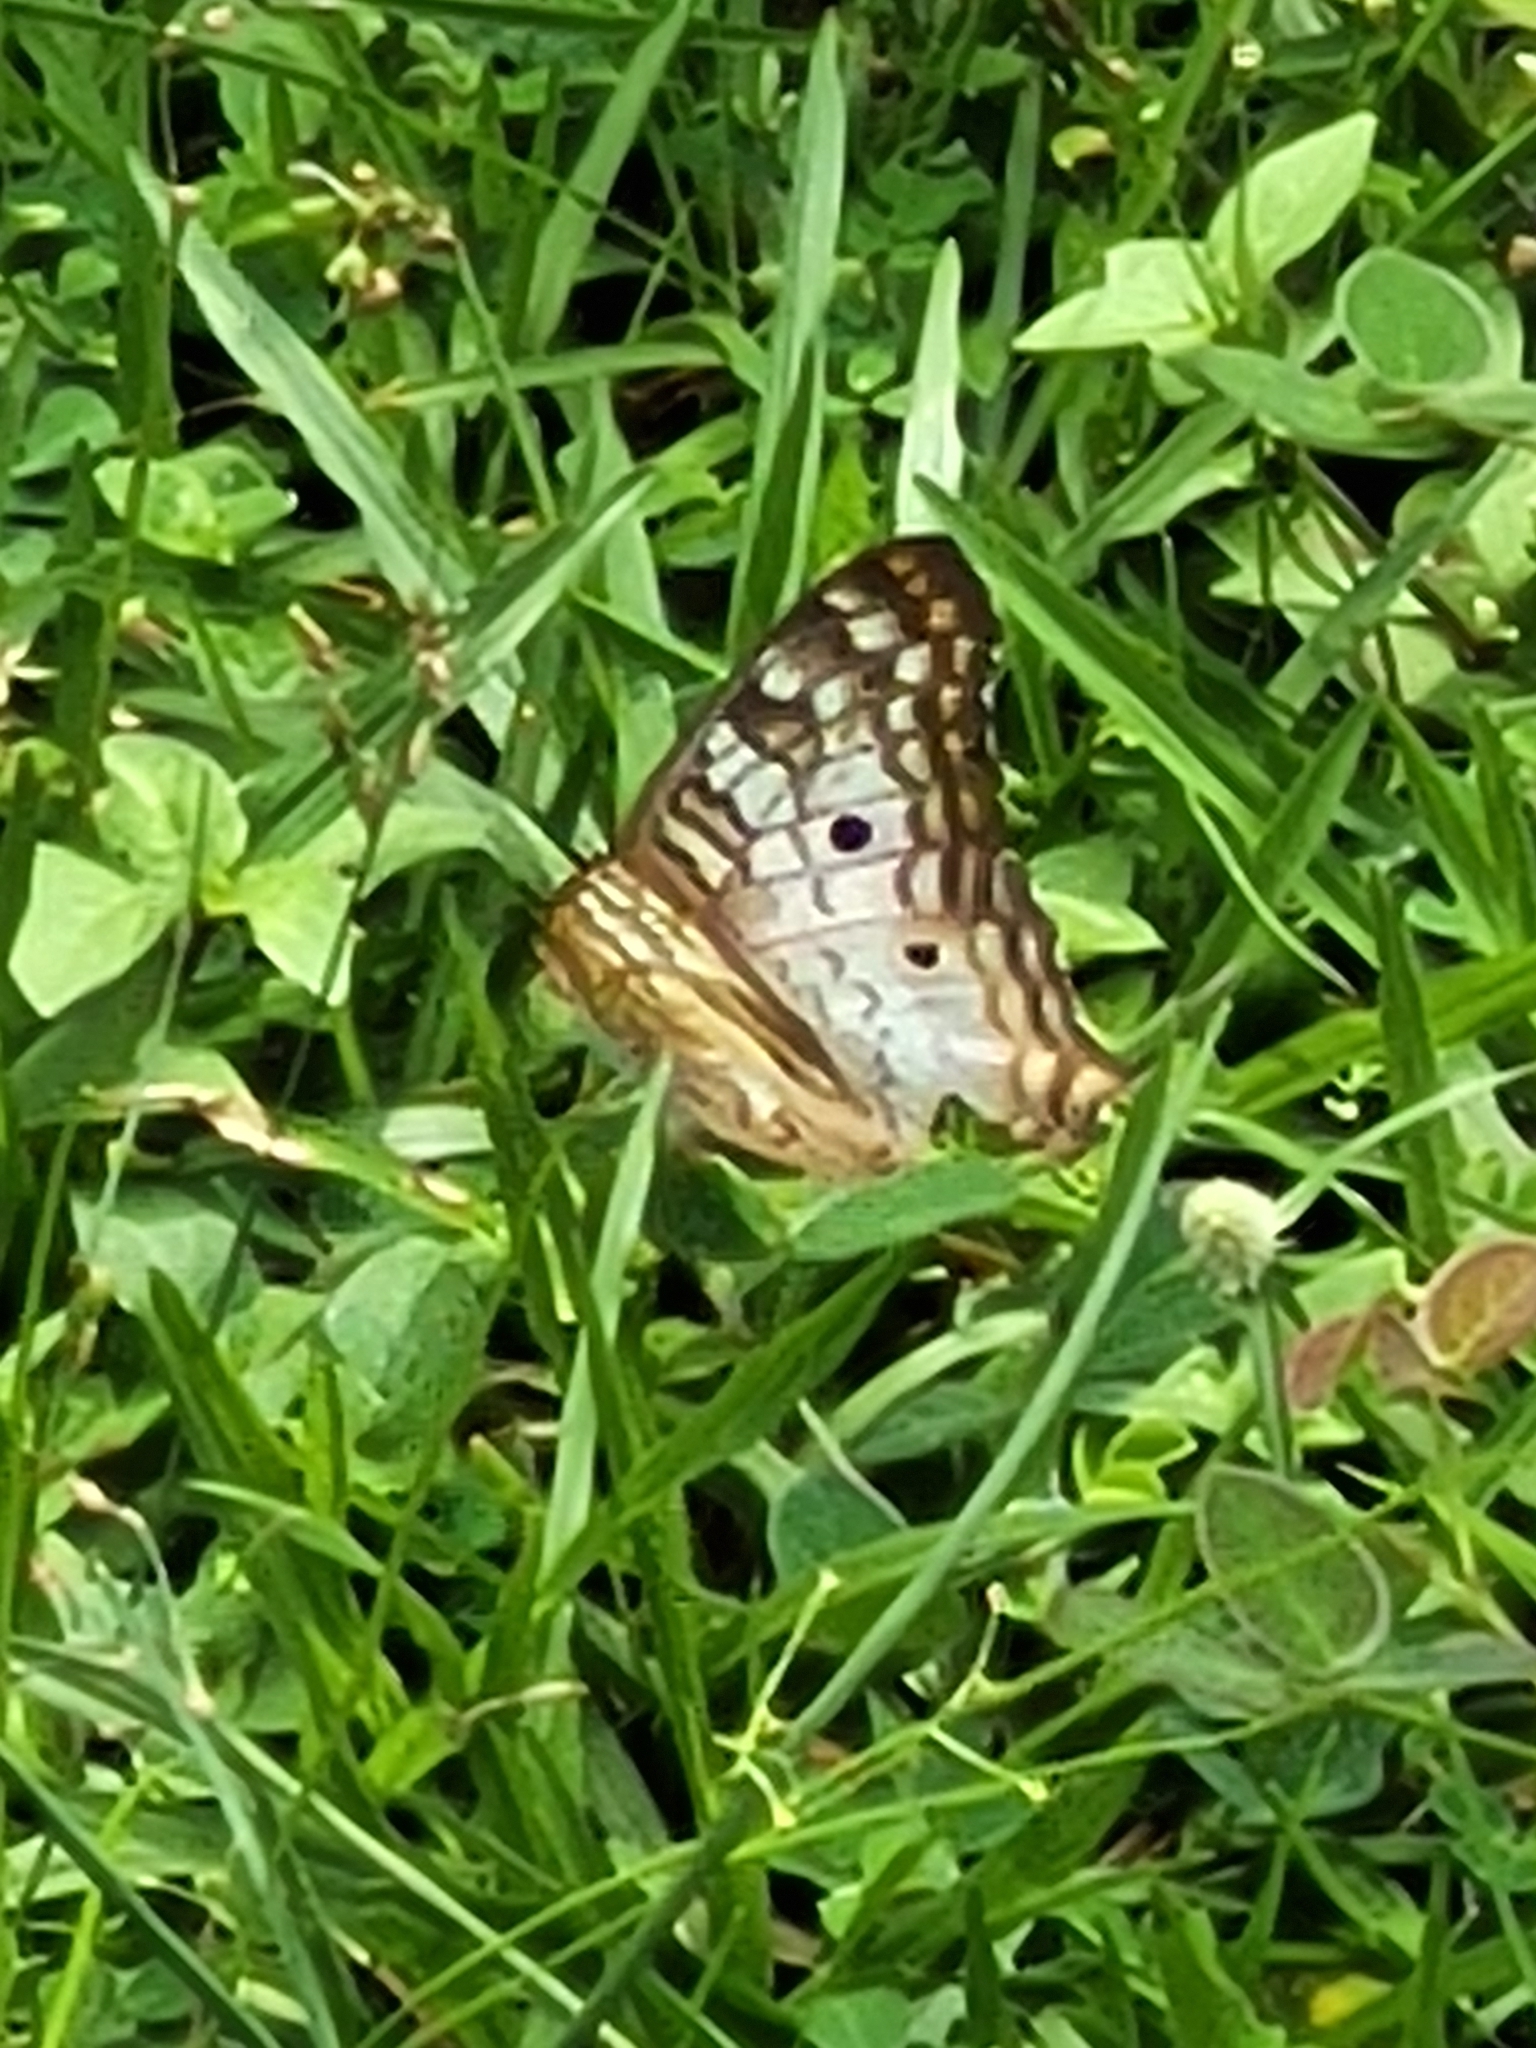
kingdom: Animalia
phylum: Arthropoda
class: Insecta
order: Lepidoptera
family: Nymphalidae
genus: Anartia
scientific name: Anartia jatrophae
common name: White peacock
